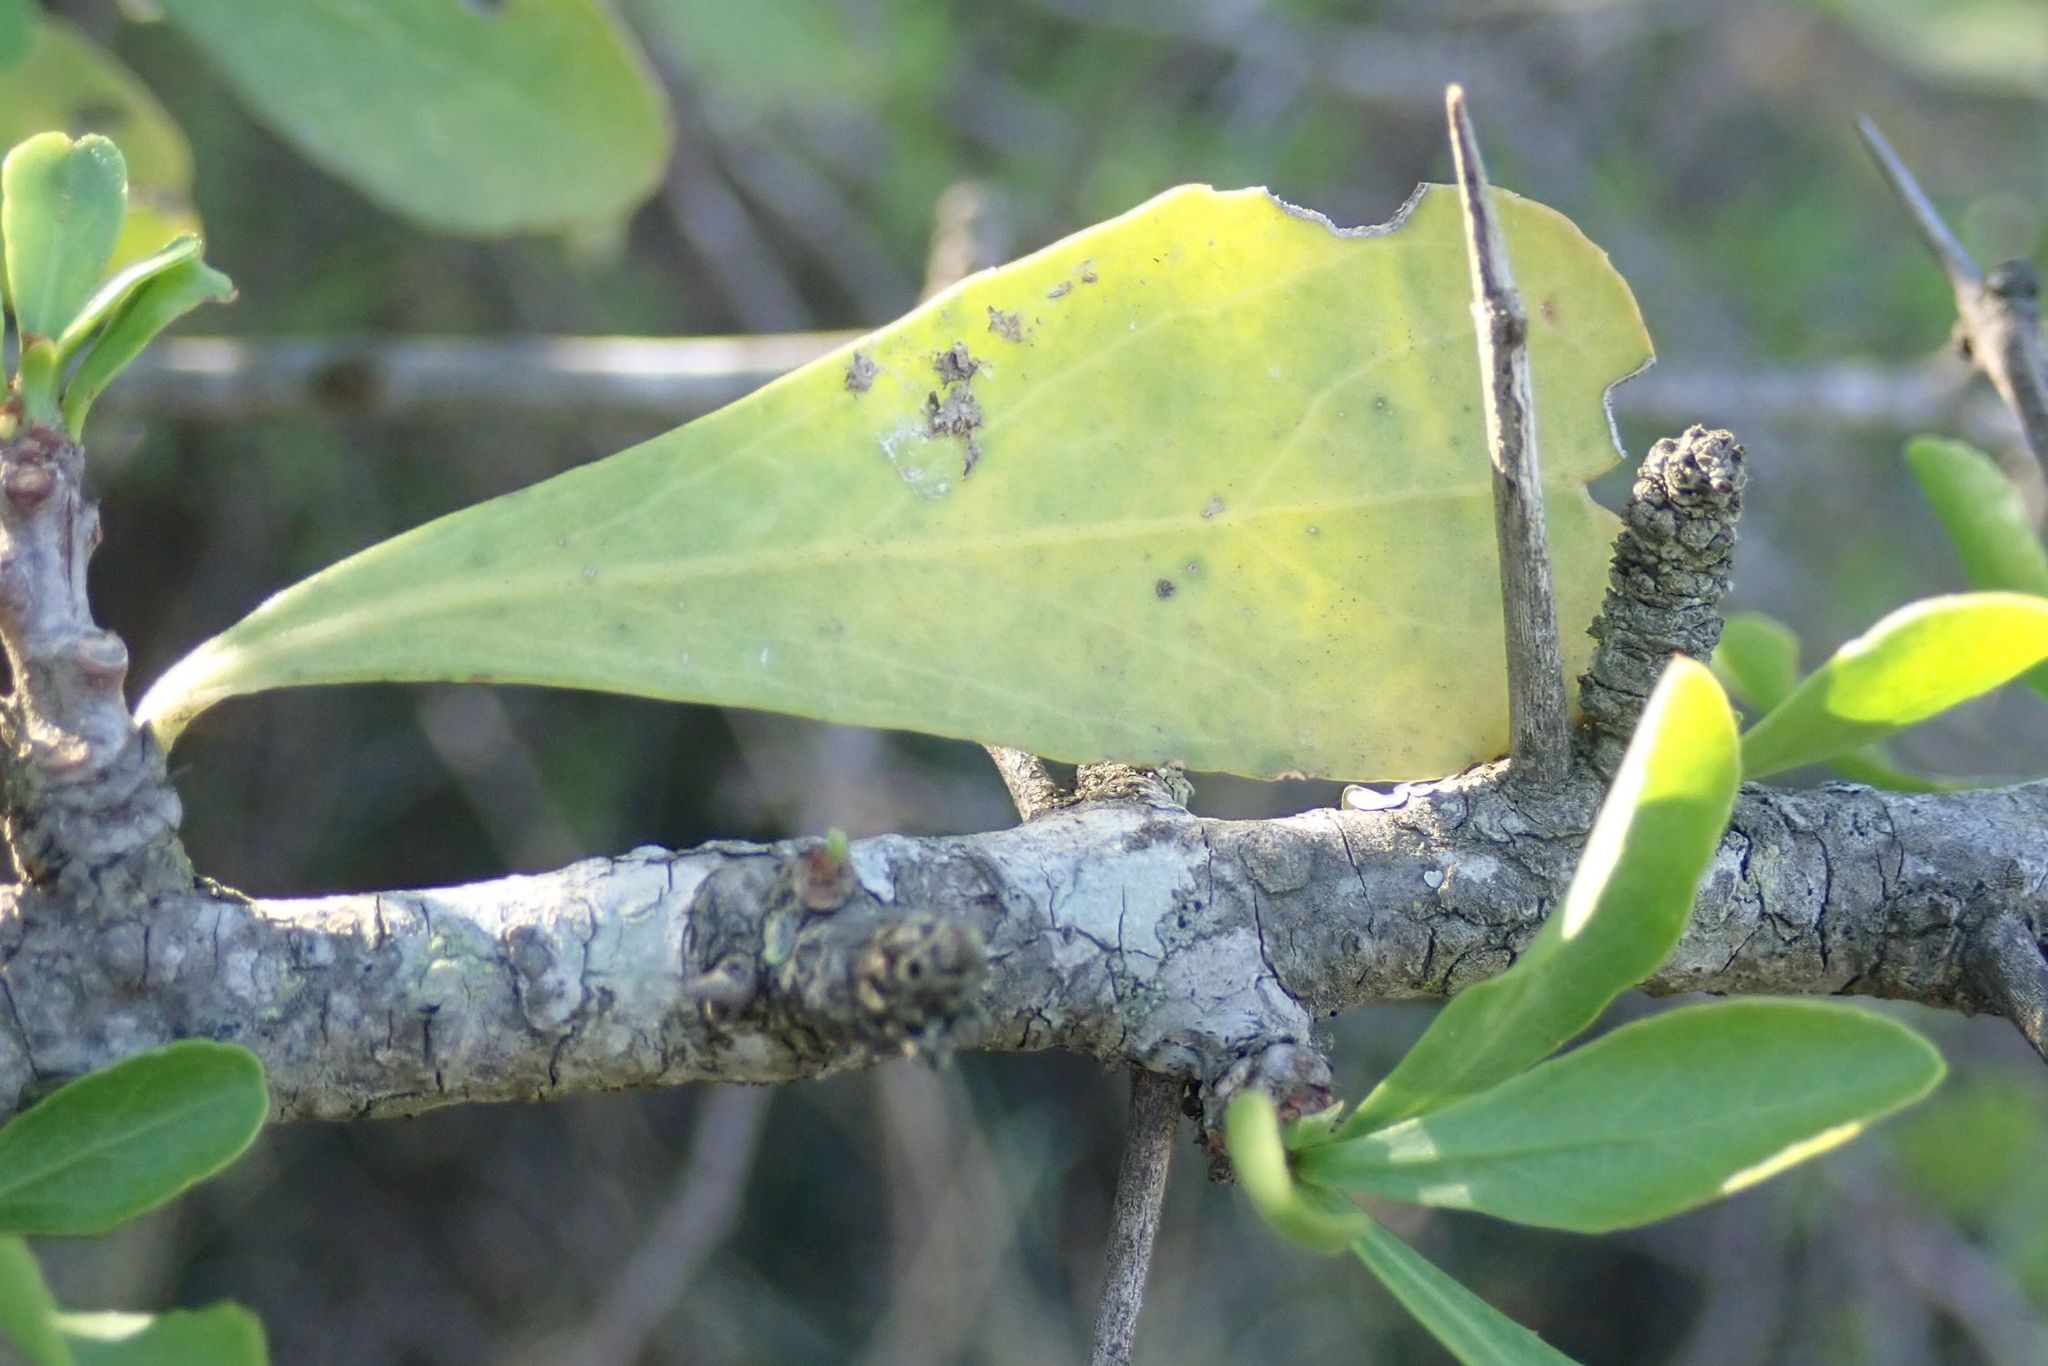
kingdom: Plantae
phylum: Tracheophyta
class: Magnoliopsida
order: Celastrales
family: Celastraceae
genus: Gymnosporia
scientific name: Gymnosporia buxifolia
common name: Common spike-thorn
